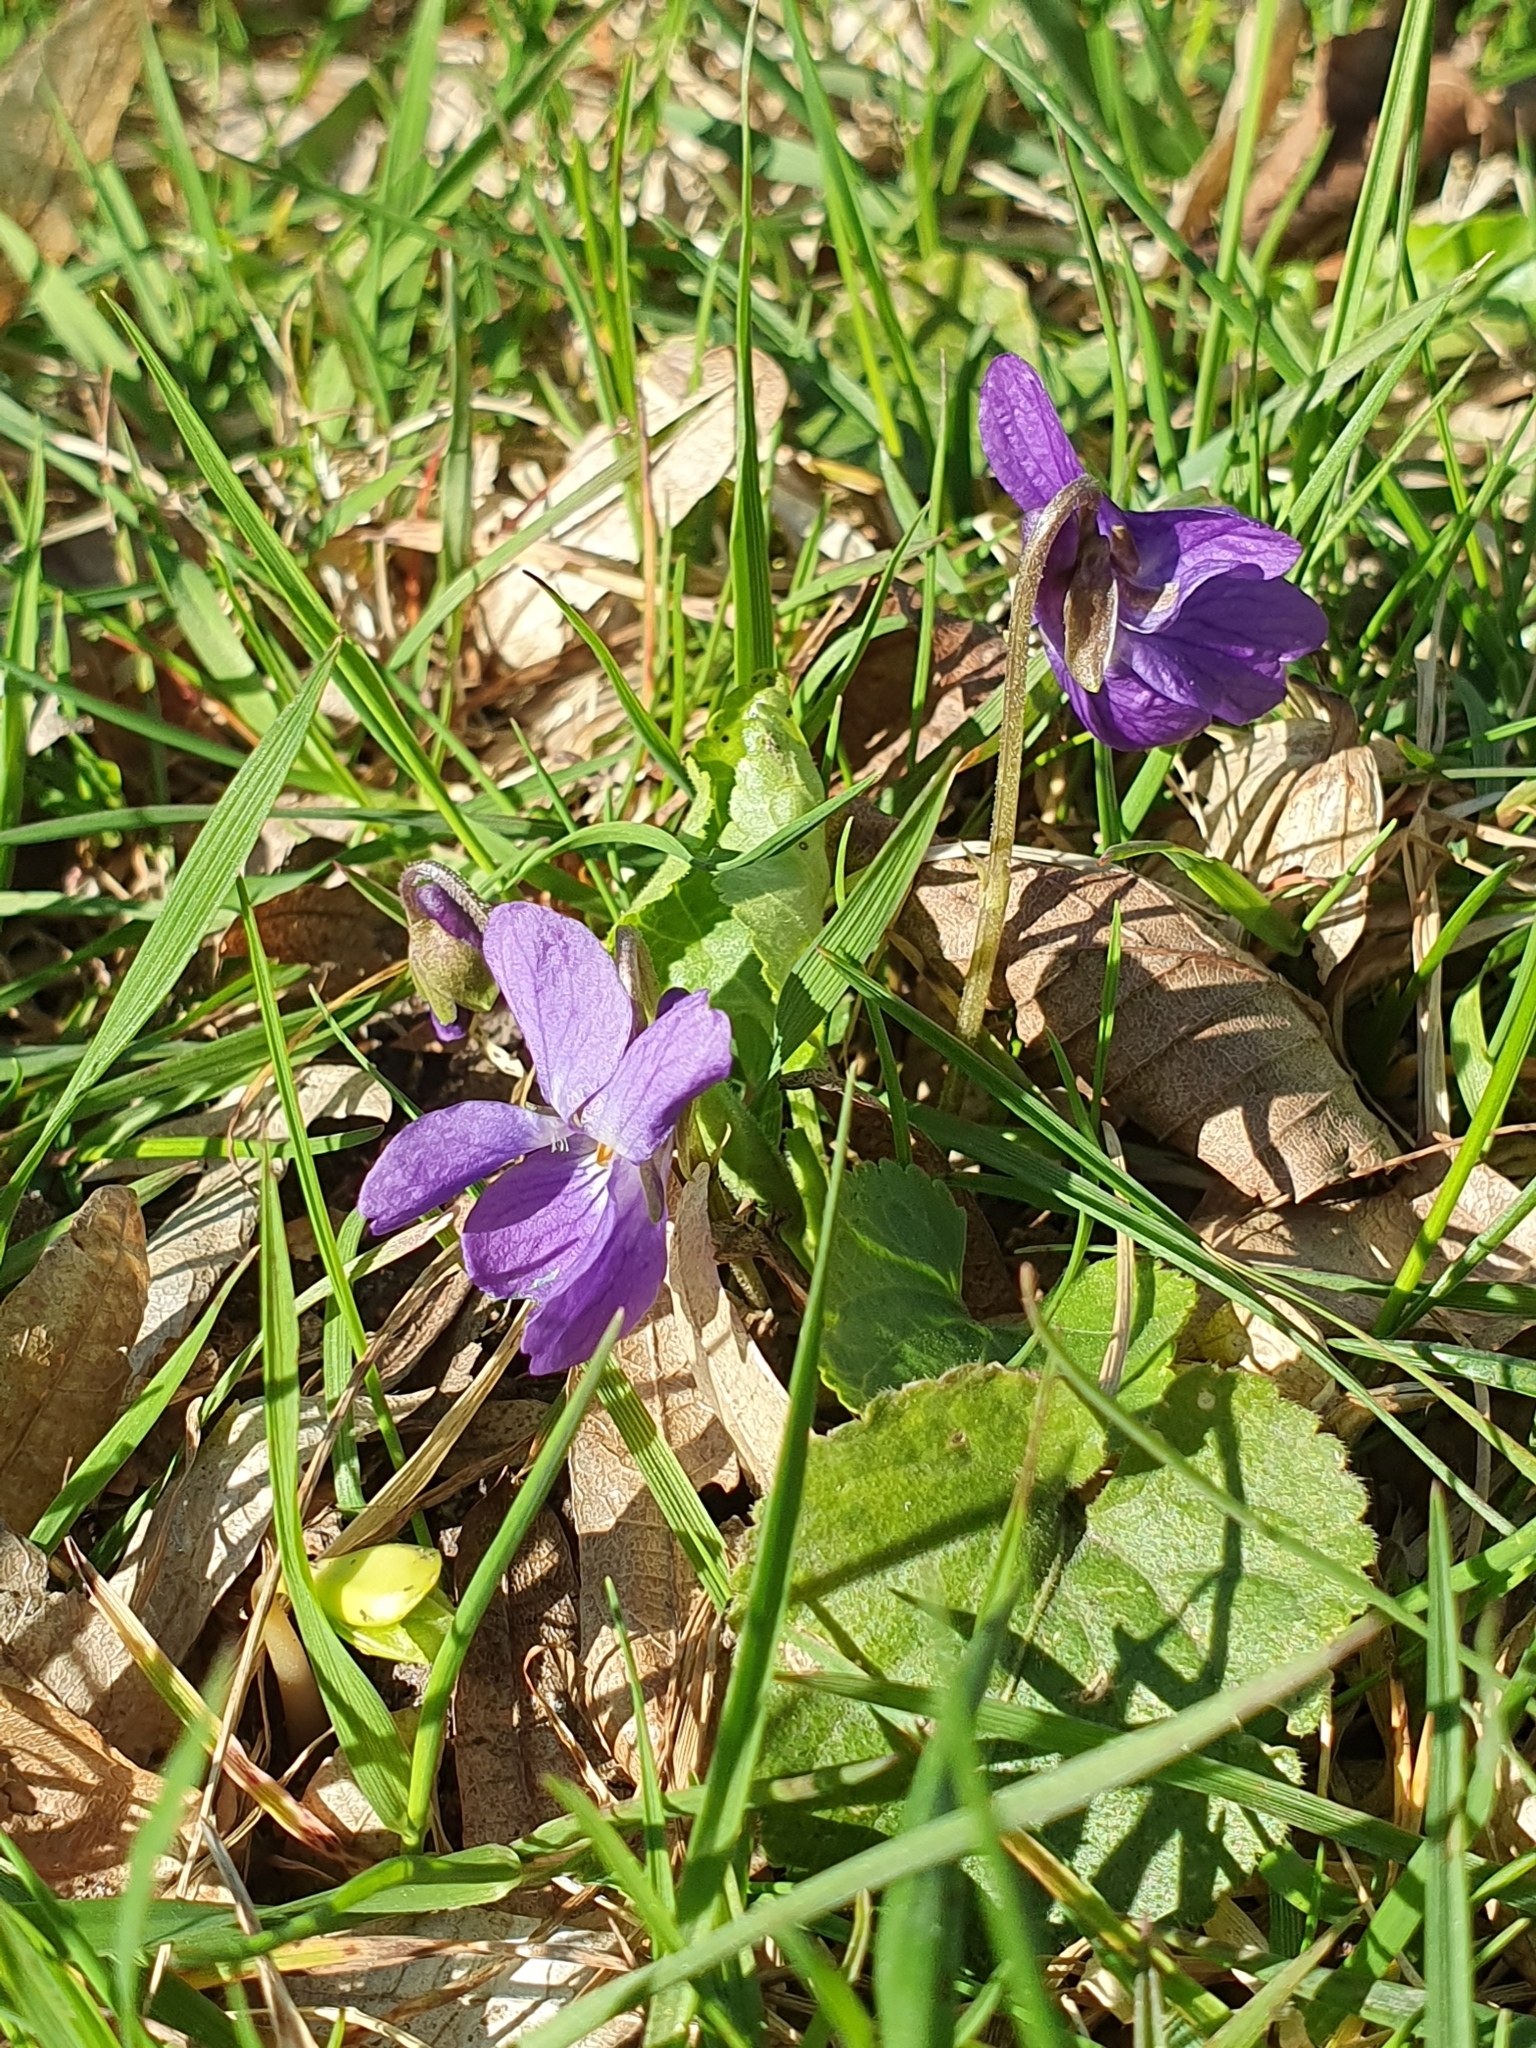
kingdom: Plantae
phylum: Tracheophyta
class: Magnoliopsida
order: Malpighiales
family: Violaceae
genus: Viola
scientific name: Viola odorata
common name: Sweet violet
